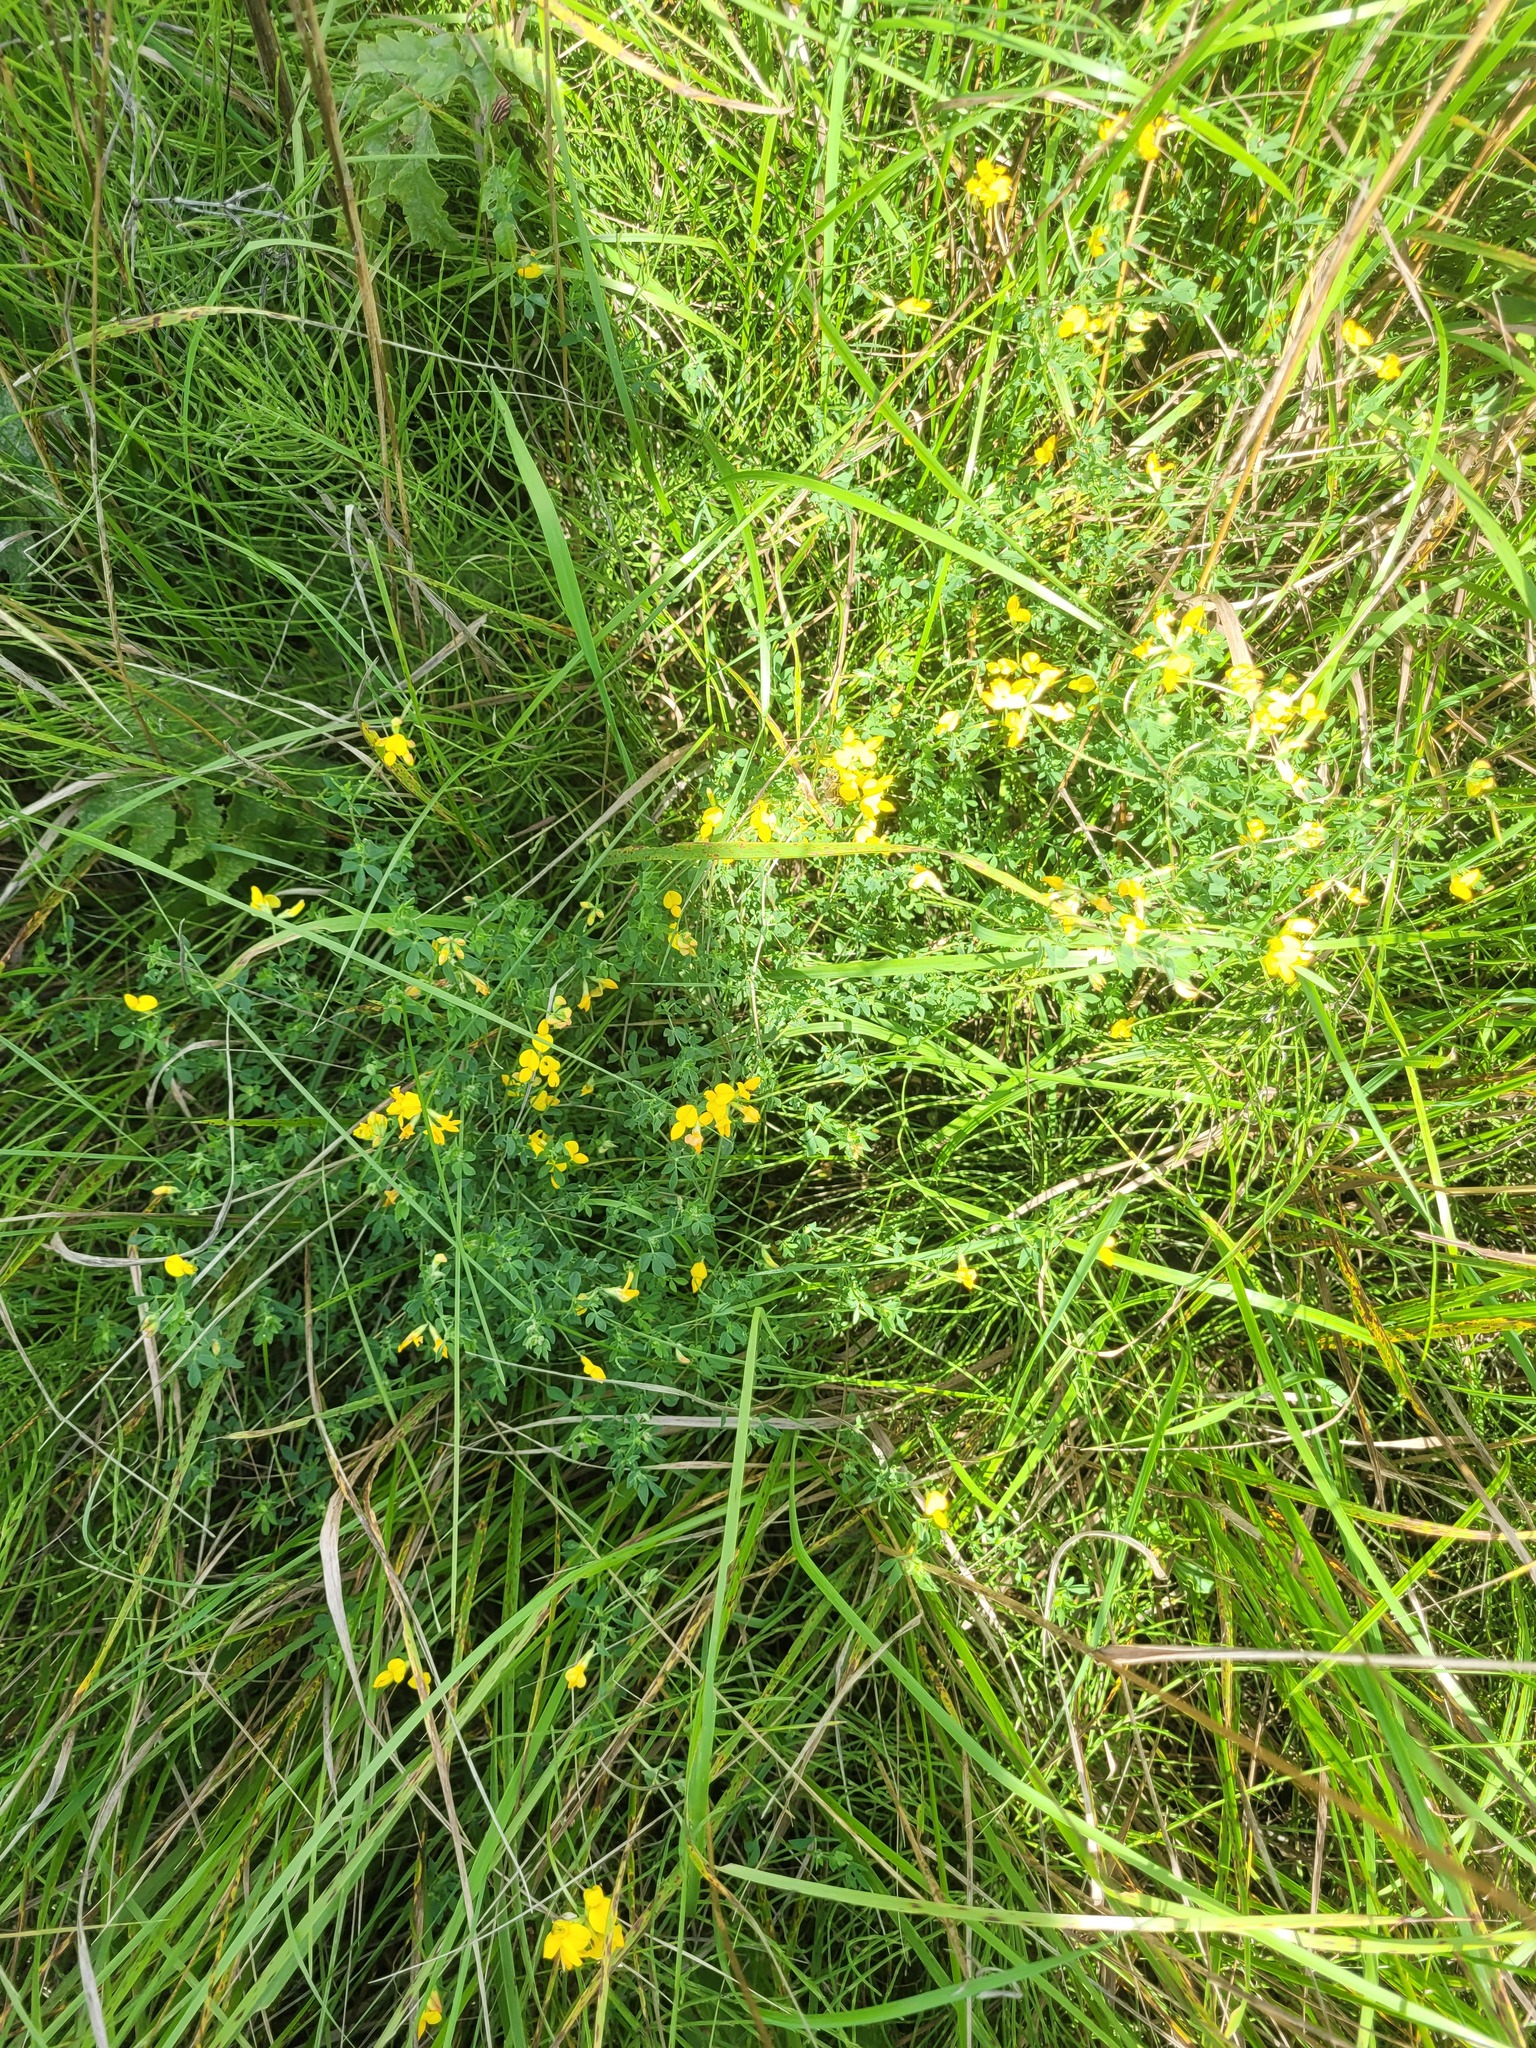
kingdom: Plantae
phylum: Tracheophyta
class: Magnoliopsida
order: Fabales
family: Fabaceae
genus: Lotus
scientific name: Lotus corniculatus
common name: Common bird's-foot-trefoil
